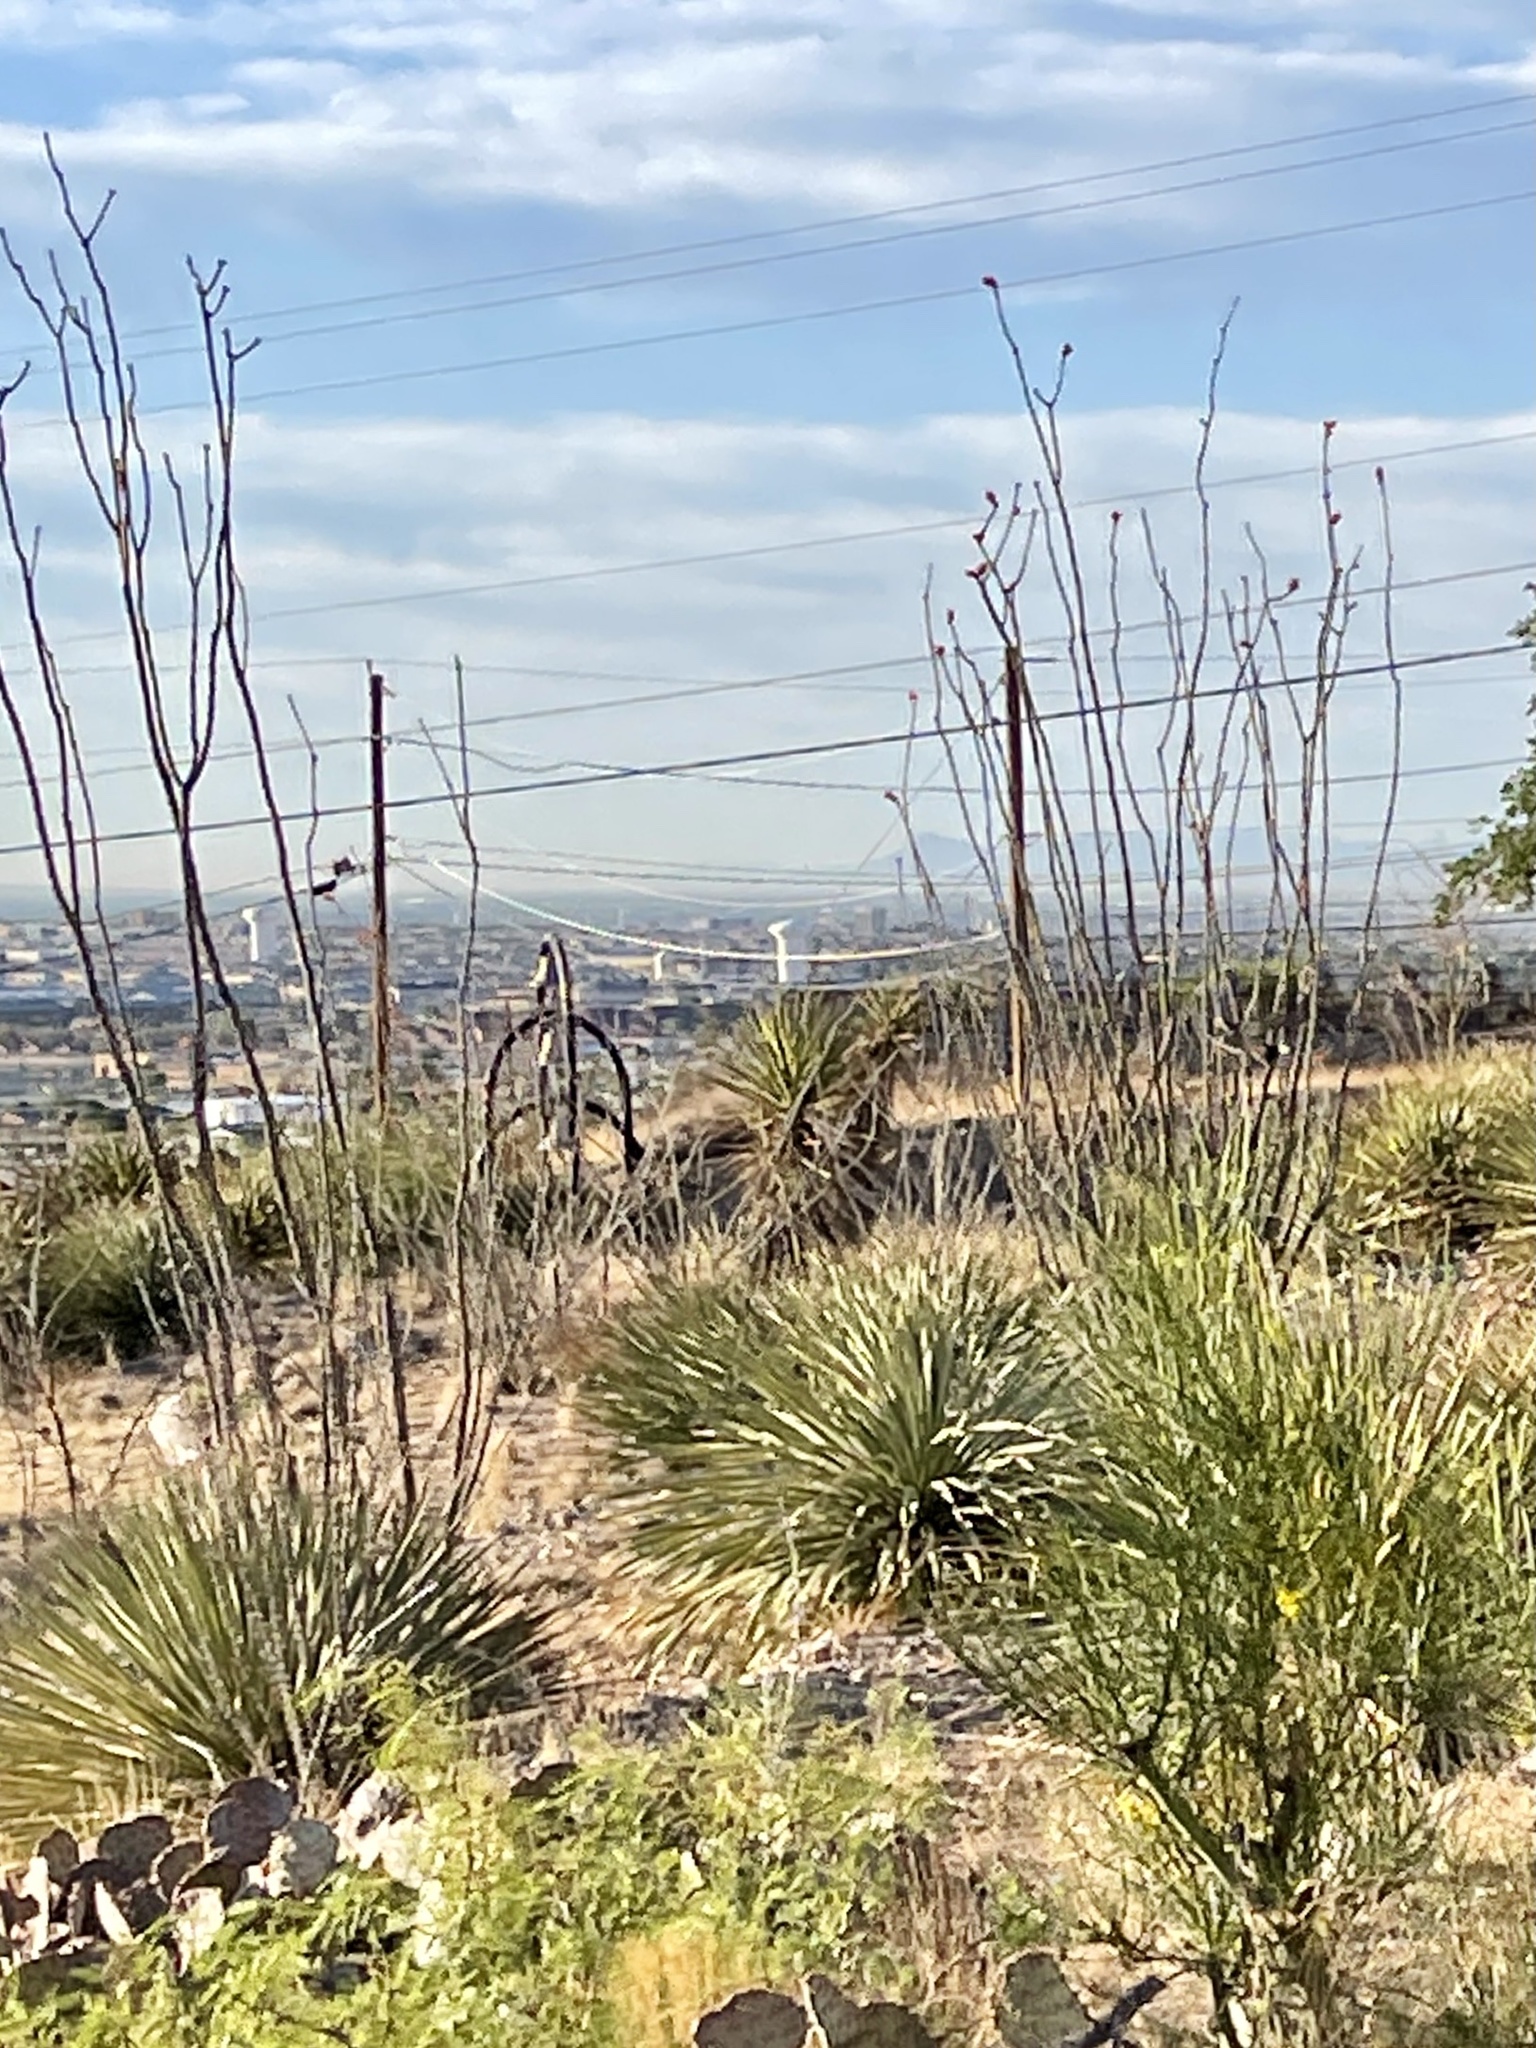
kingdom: Plantae
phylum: Tracheophyta
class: Magnoliopsida
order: Ericales
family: Fouquieriaceae
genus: Fouquieria
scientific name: Fouquieria splendens
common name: Vine-cactus
